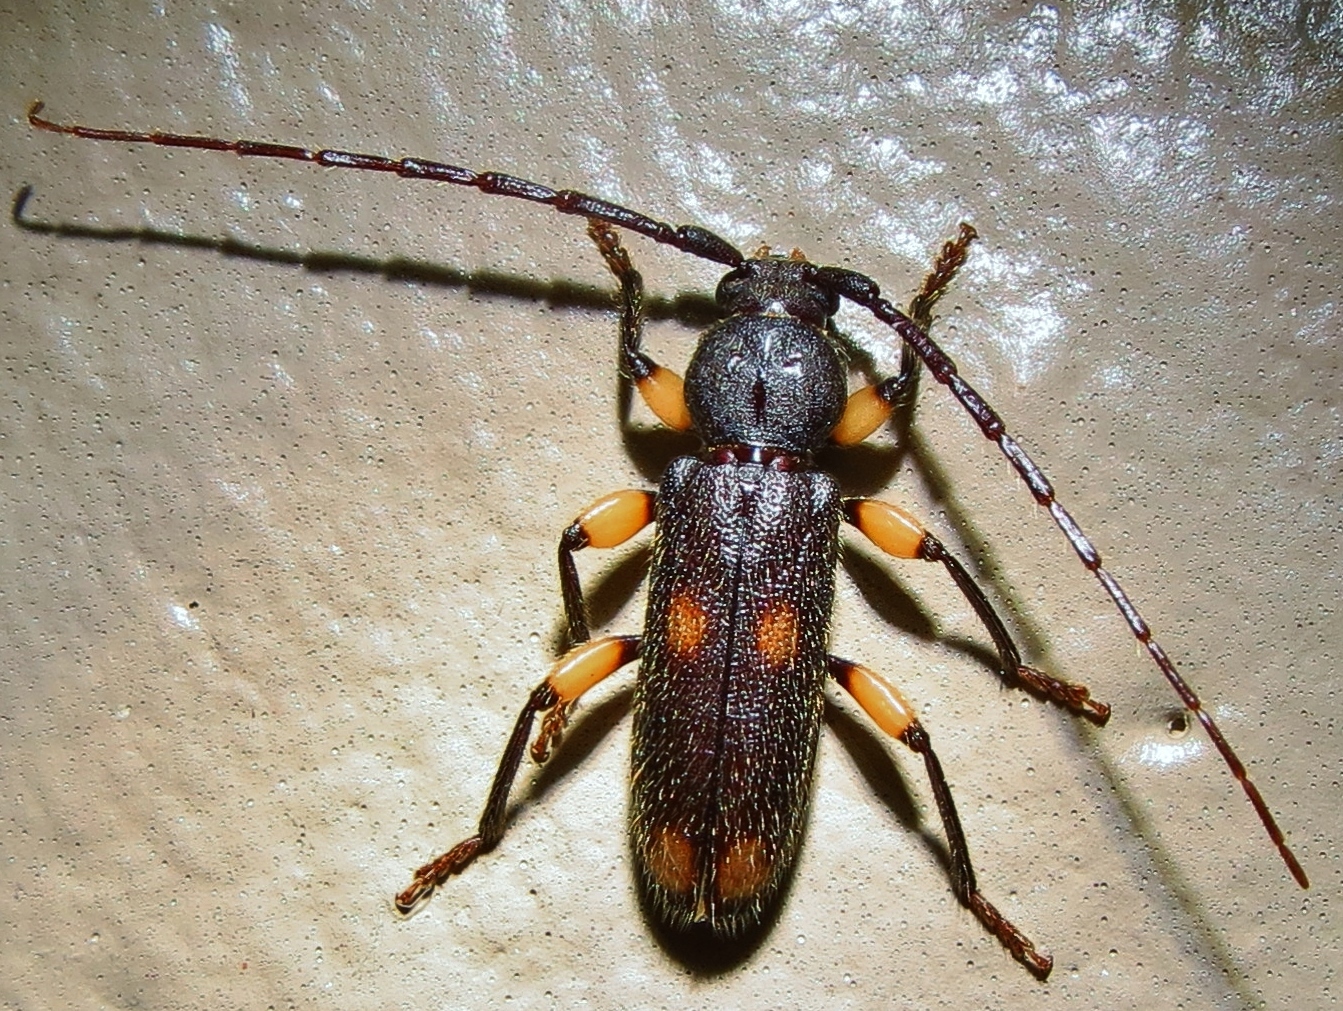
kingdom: Animalia
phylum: Arthropoda
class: Insecta
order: Coleoptera
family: Cerambycidae
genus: Tylonotus
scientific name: Tylonotus bimaculatus
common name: Ash and privet borer
